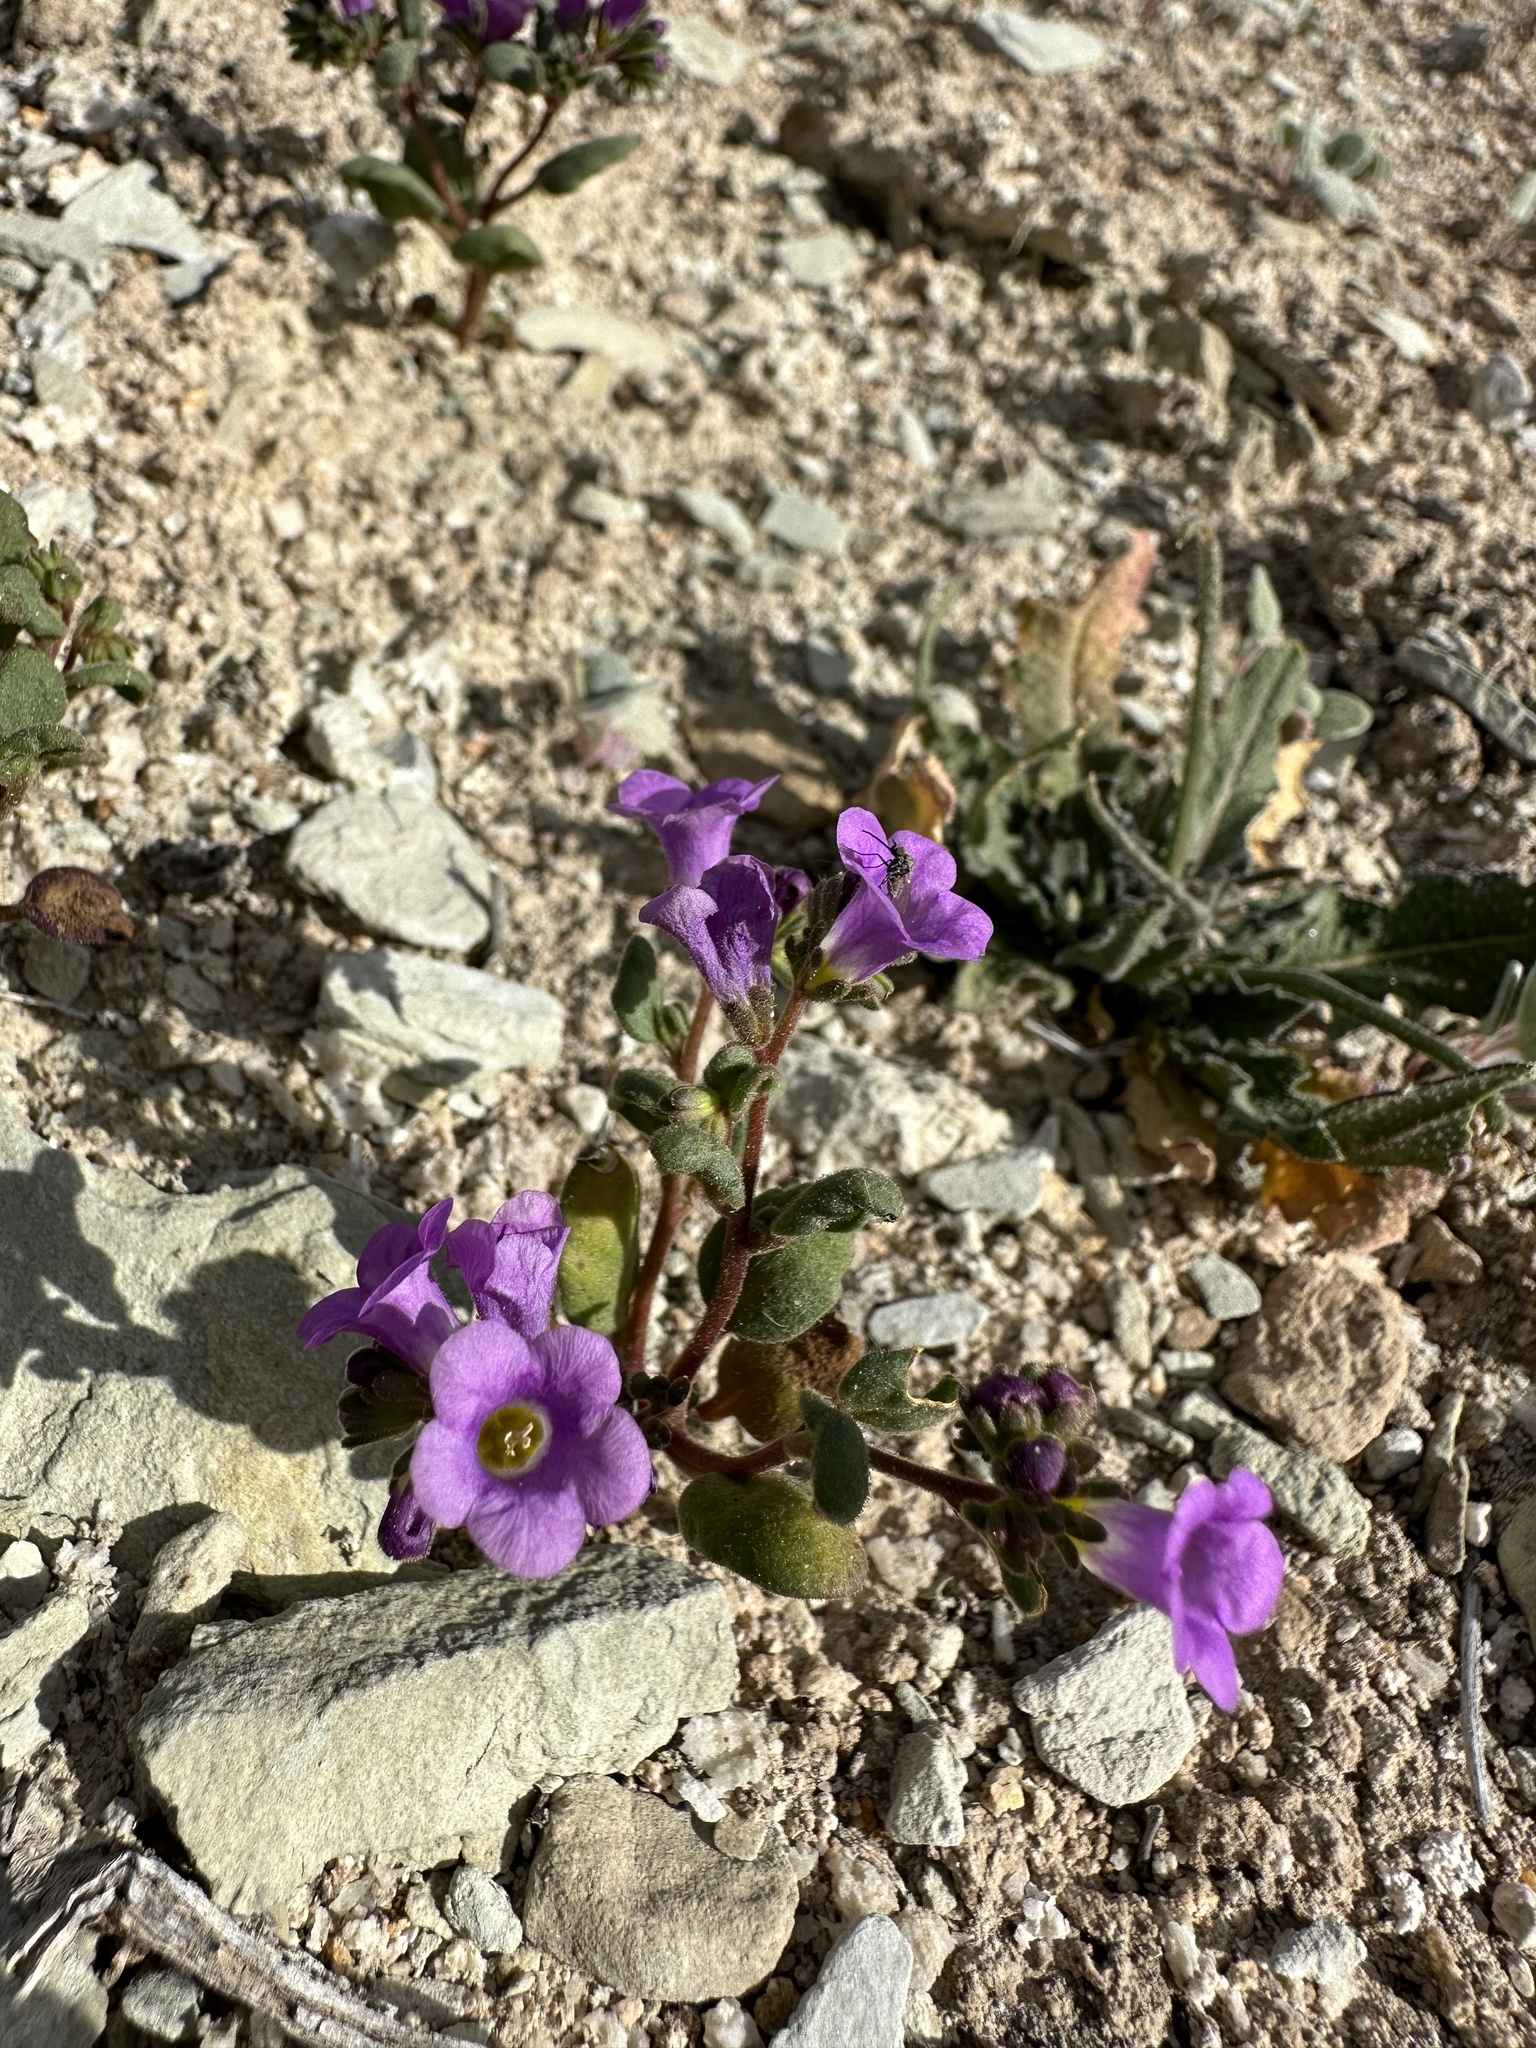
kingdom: Plantae
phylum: Tracheophyta
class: Magnoliopsida
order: Boraginales
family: Hydrophyllaceae
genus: Phacelia
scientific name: Phacelia pulchella
